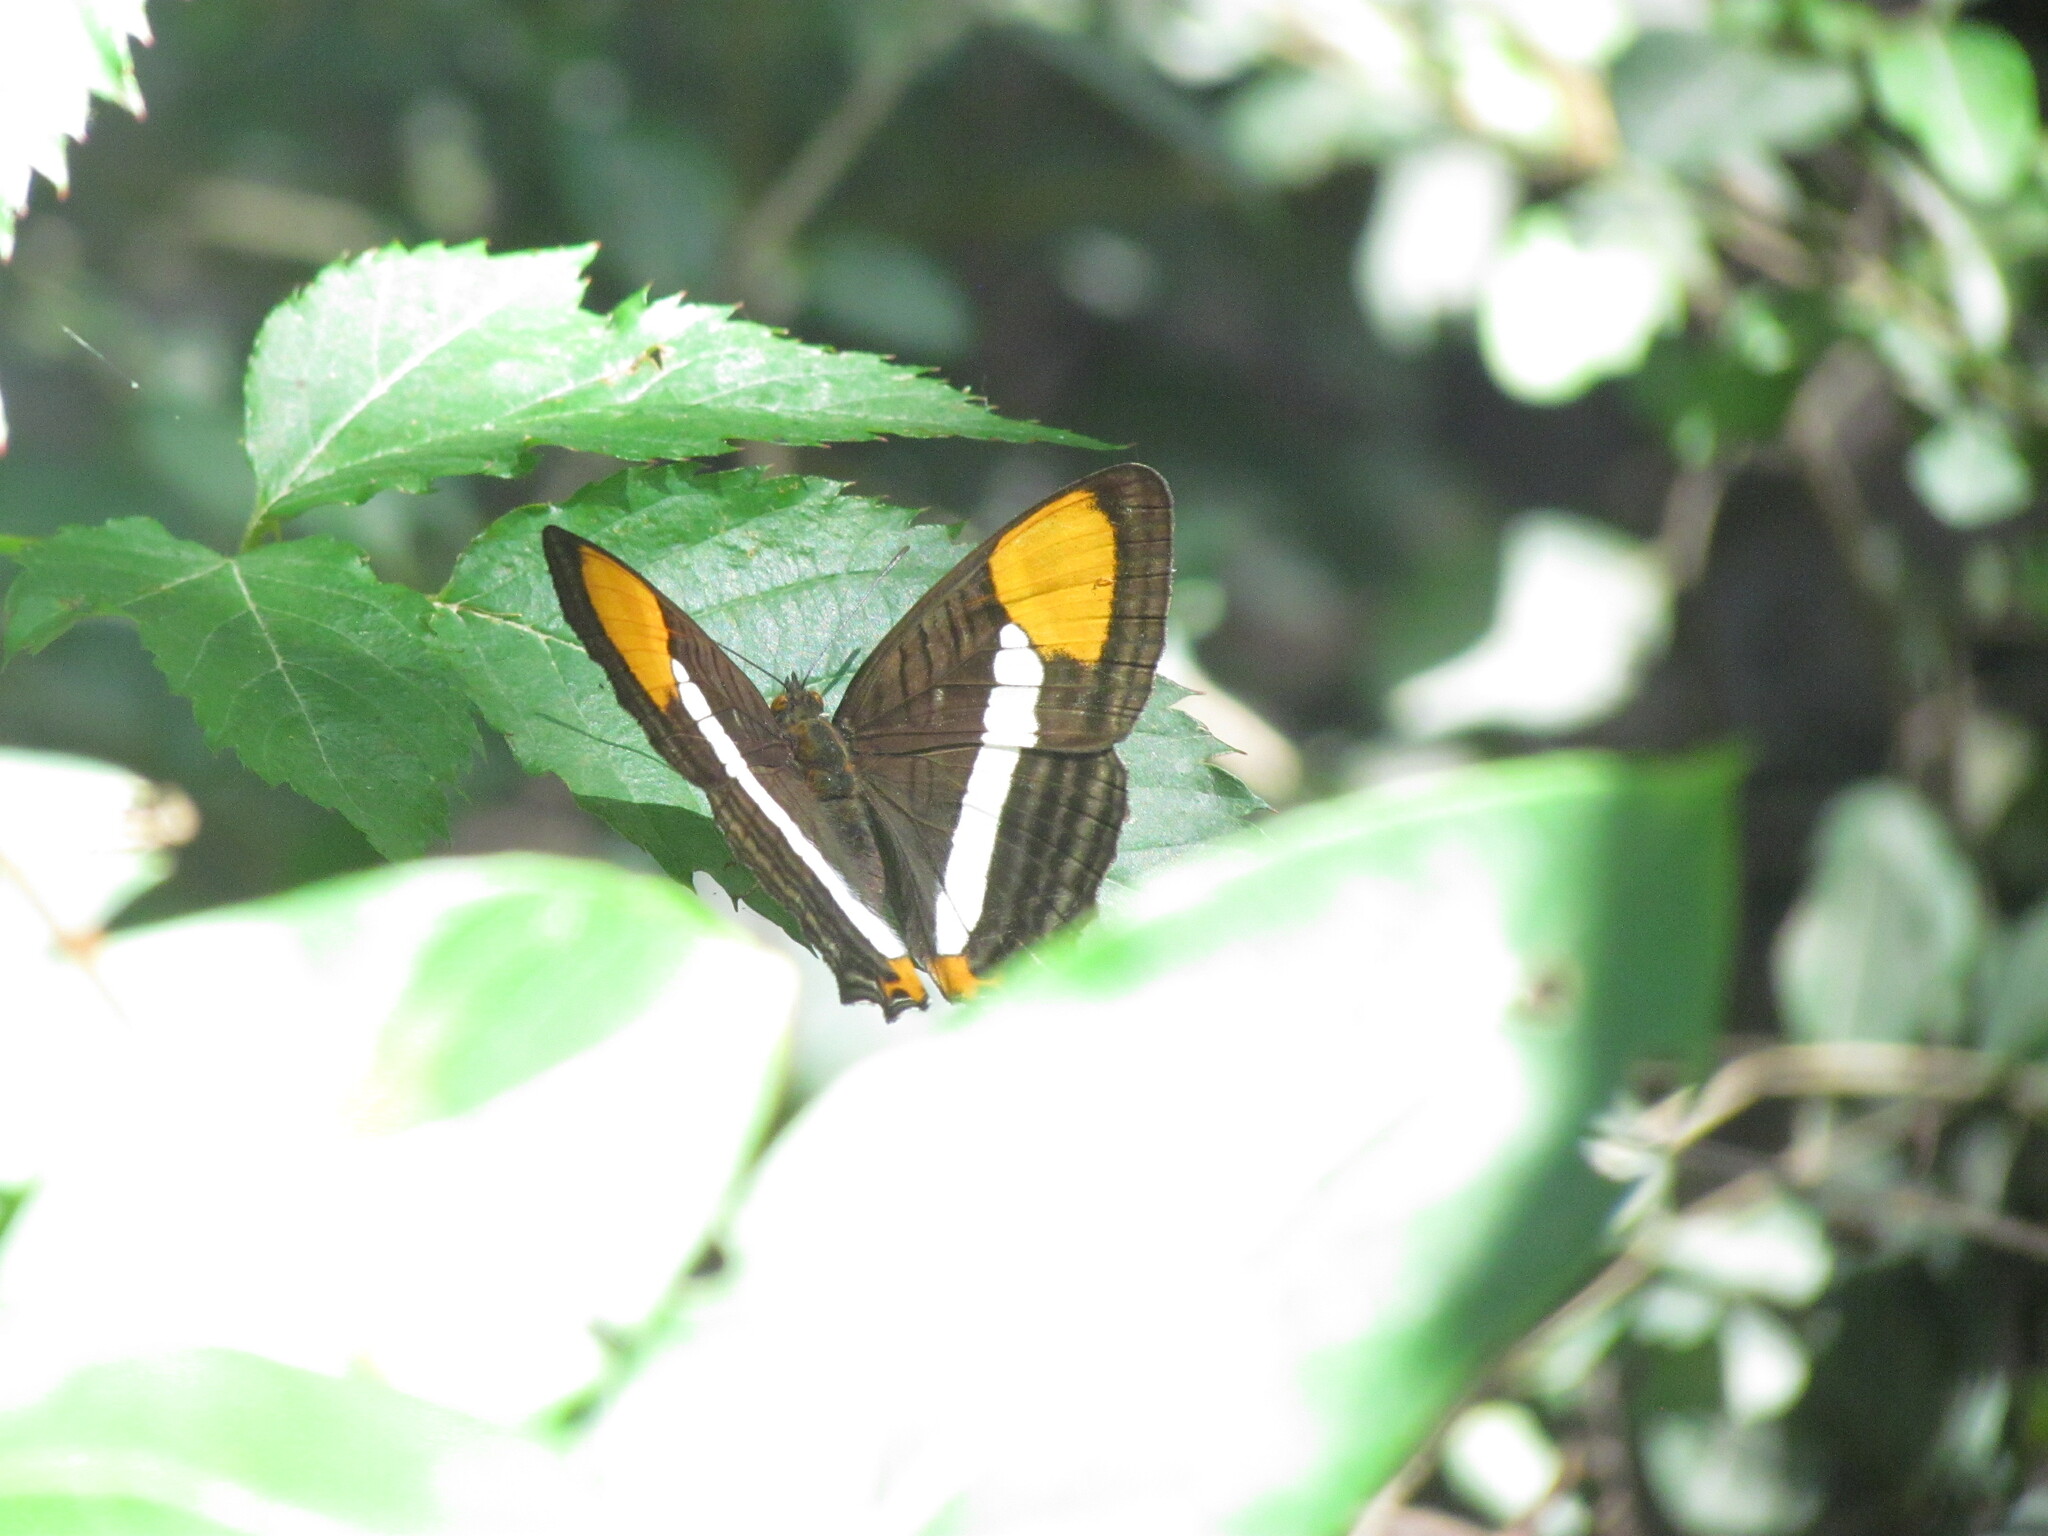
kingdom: Animalia
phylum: Arthropoda
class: Insecta
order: Lepidoptera
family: Nymphalidae
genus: Limenitis
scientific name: Limenitis syma
